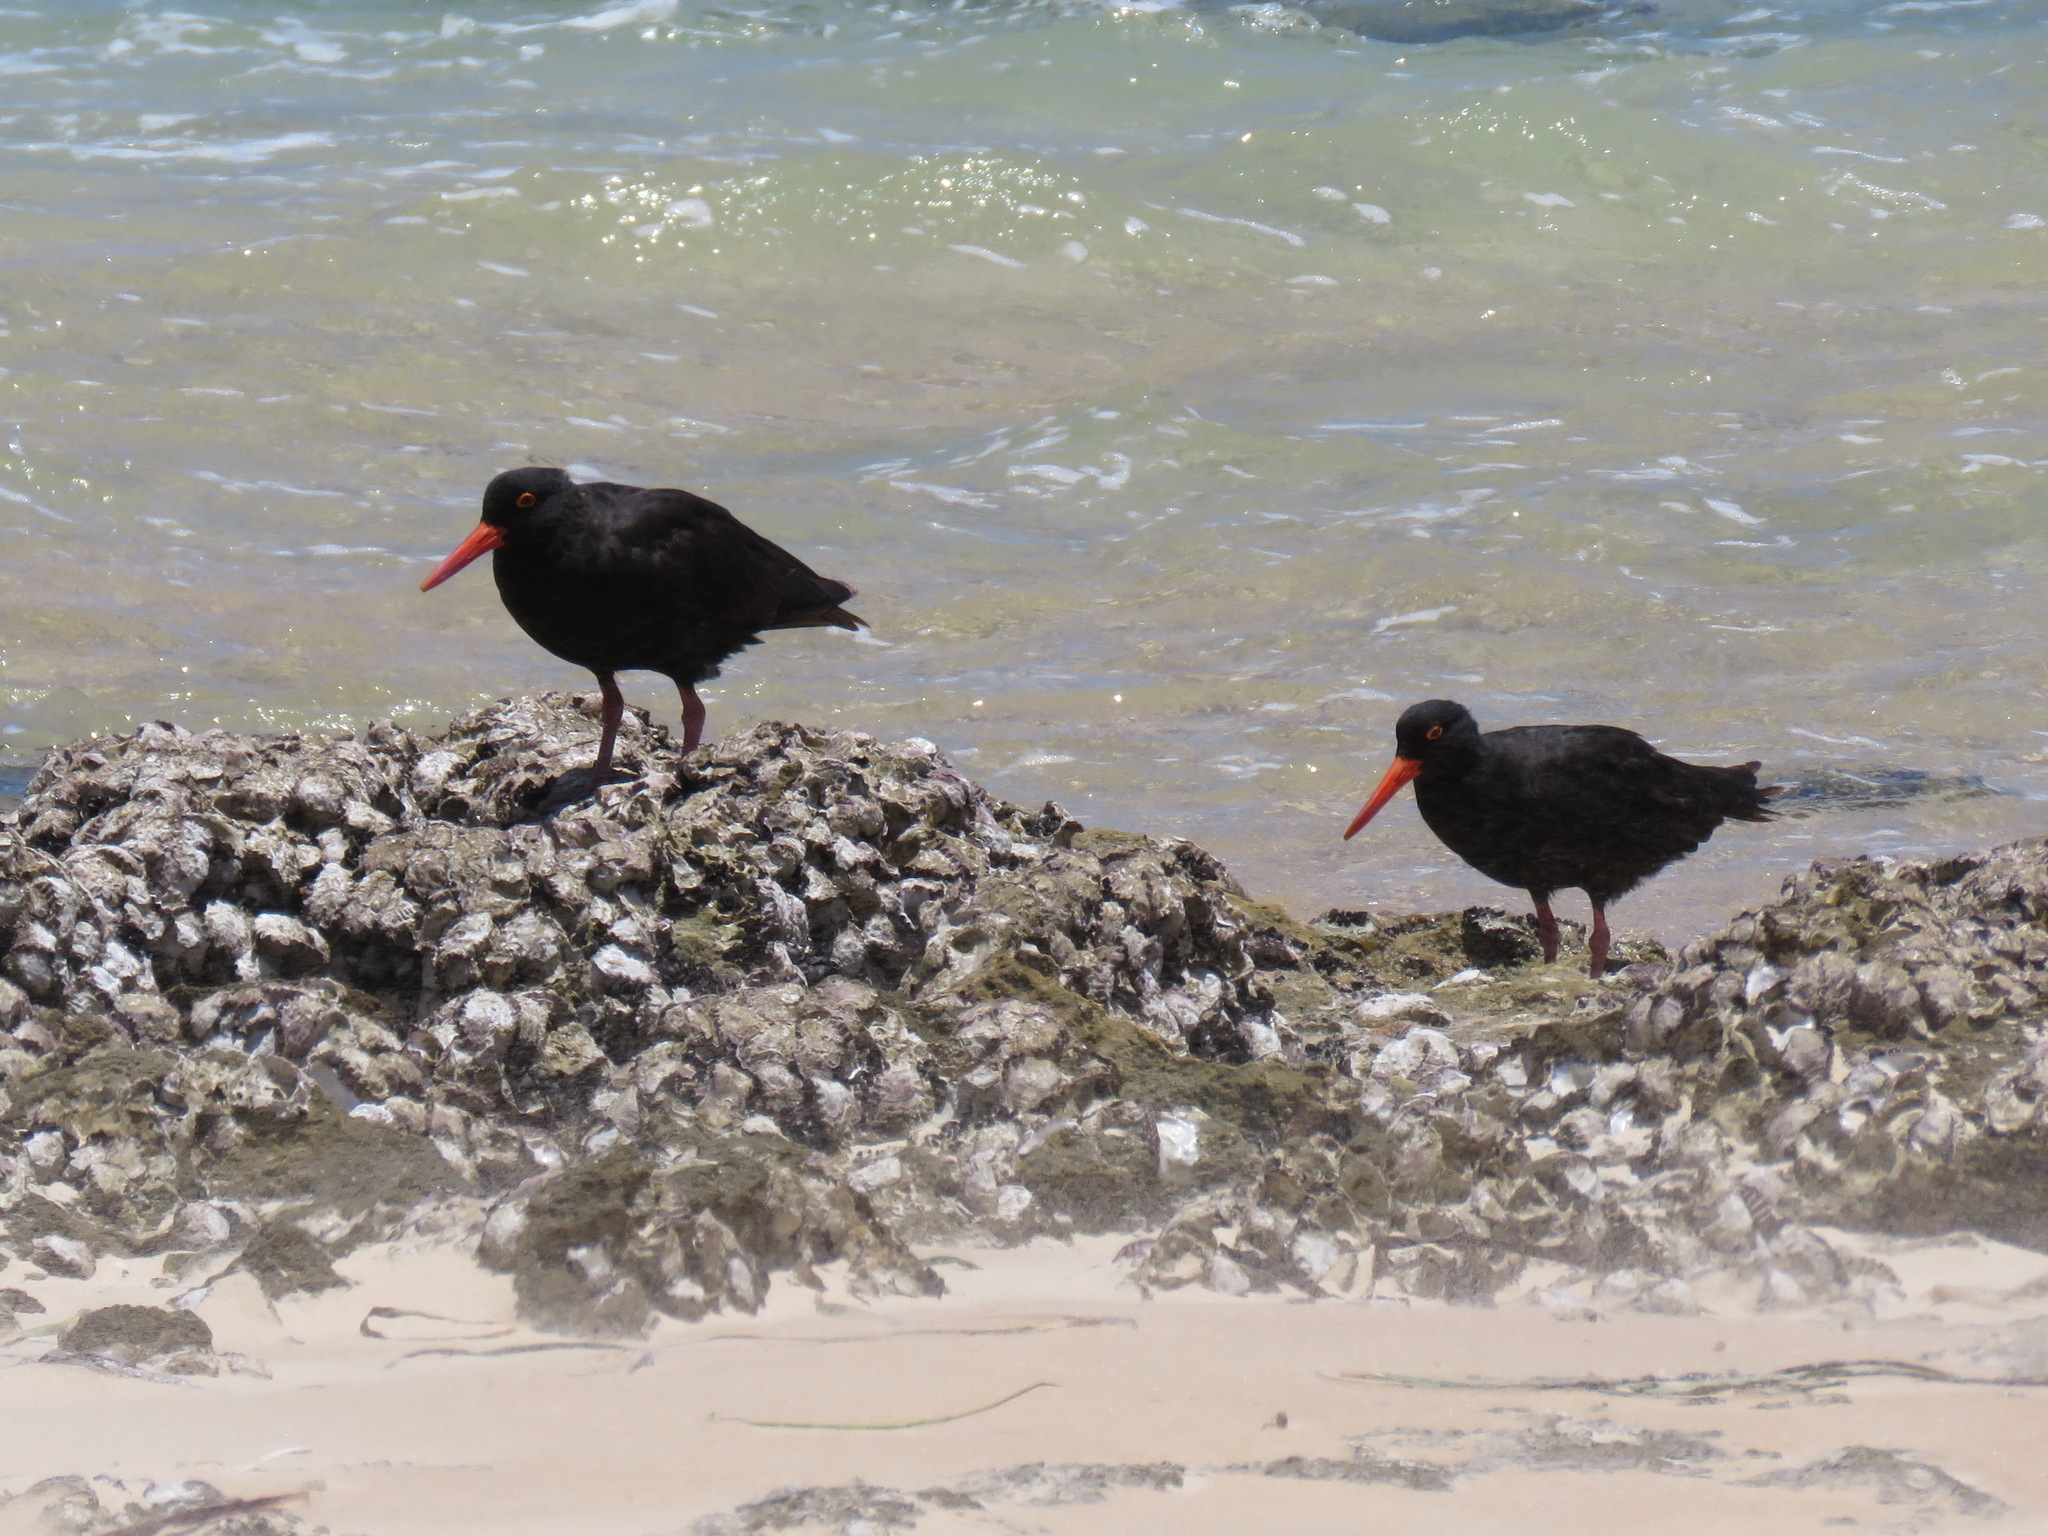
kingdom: Animalia
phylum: Chordata
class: Aves
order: Charadriiformes
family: Haematopodidae
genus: Haematopus
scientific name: Haematopus fuliginosus
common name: Sooty oystercatcher
